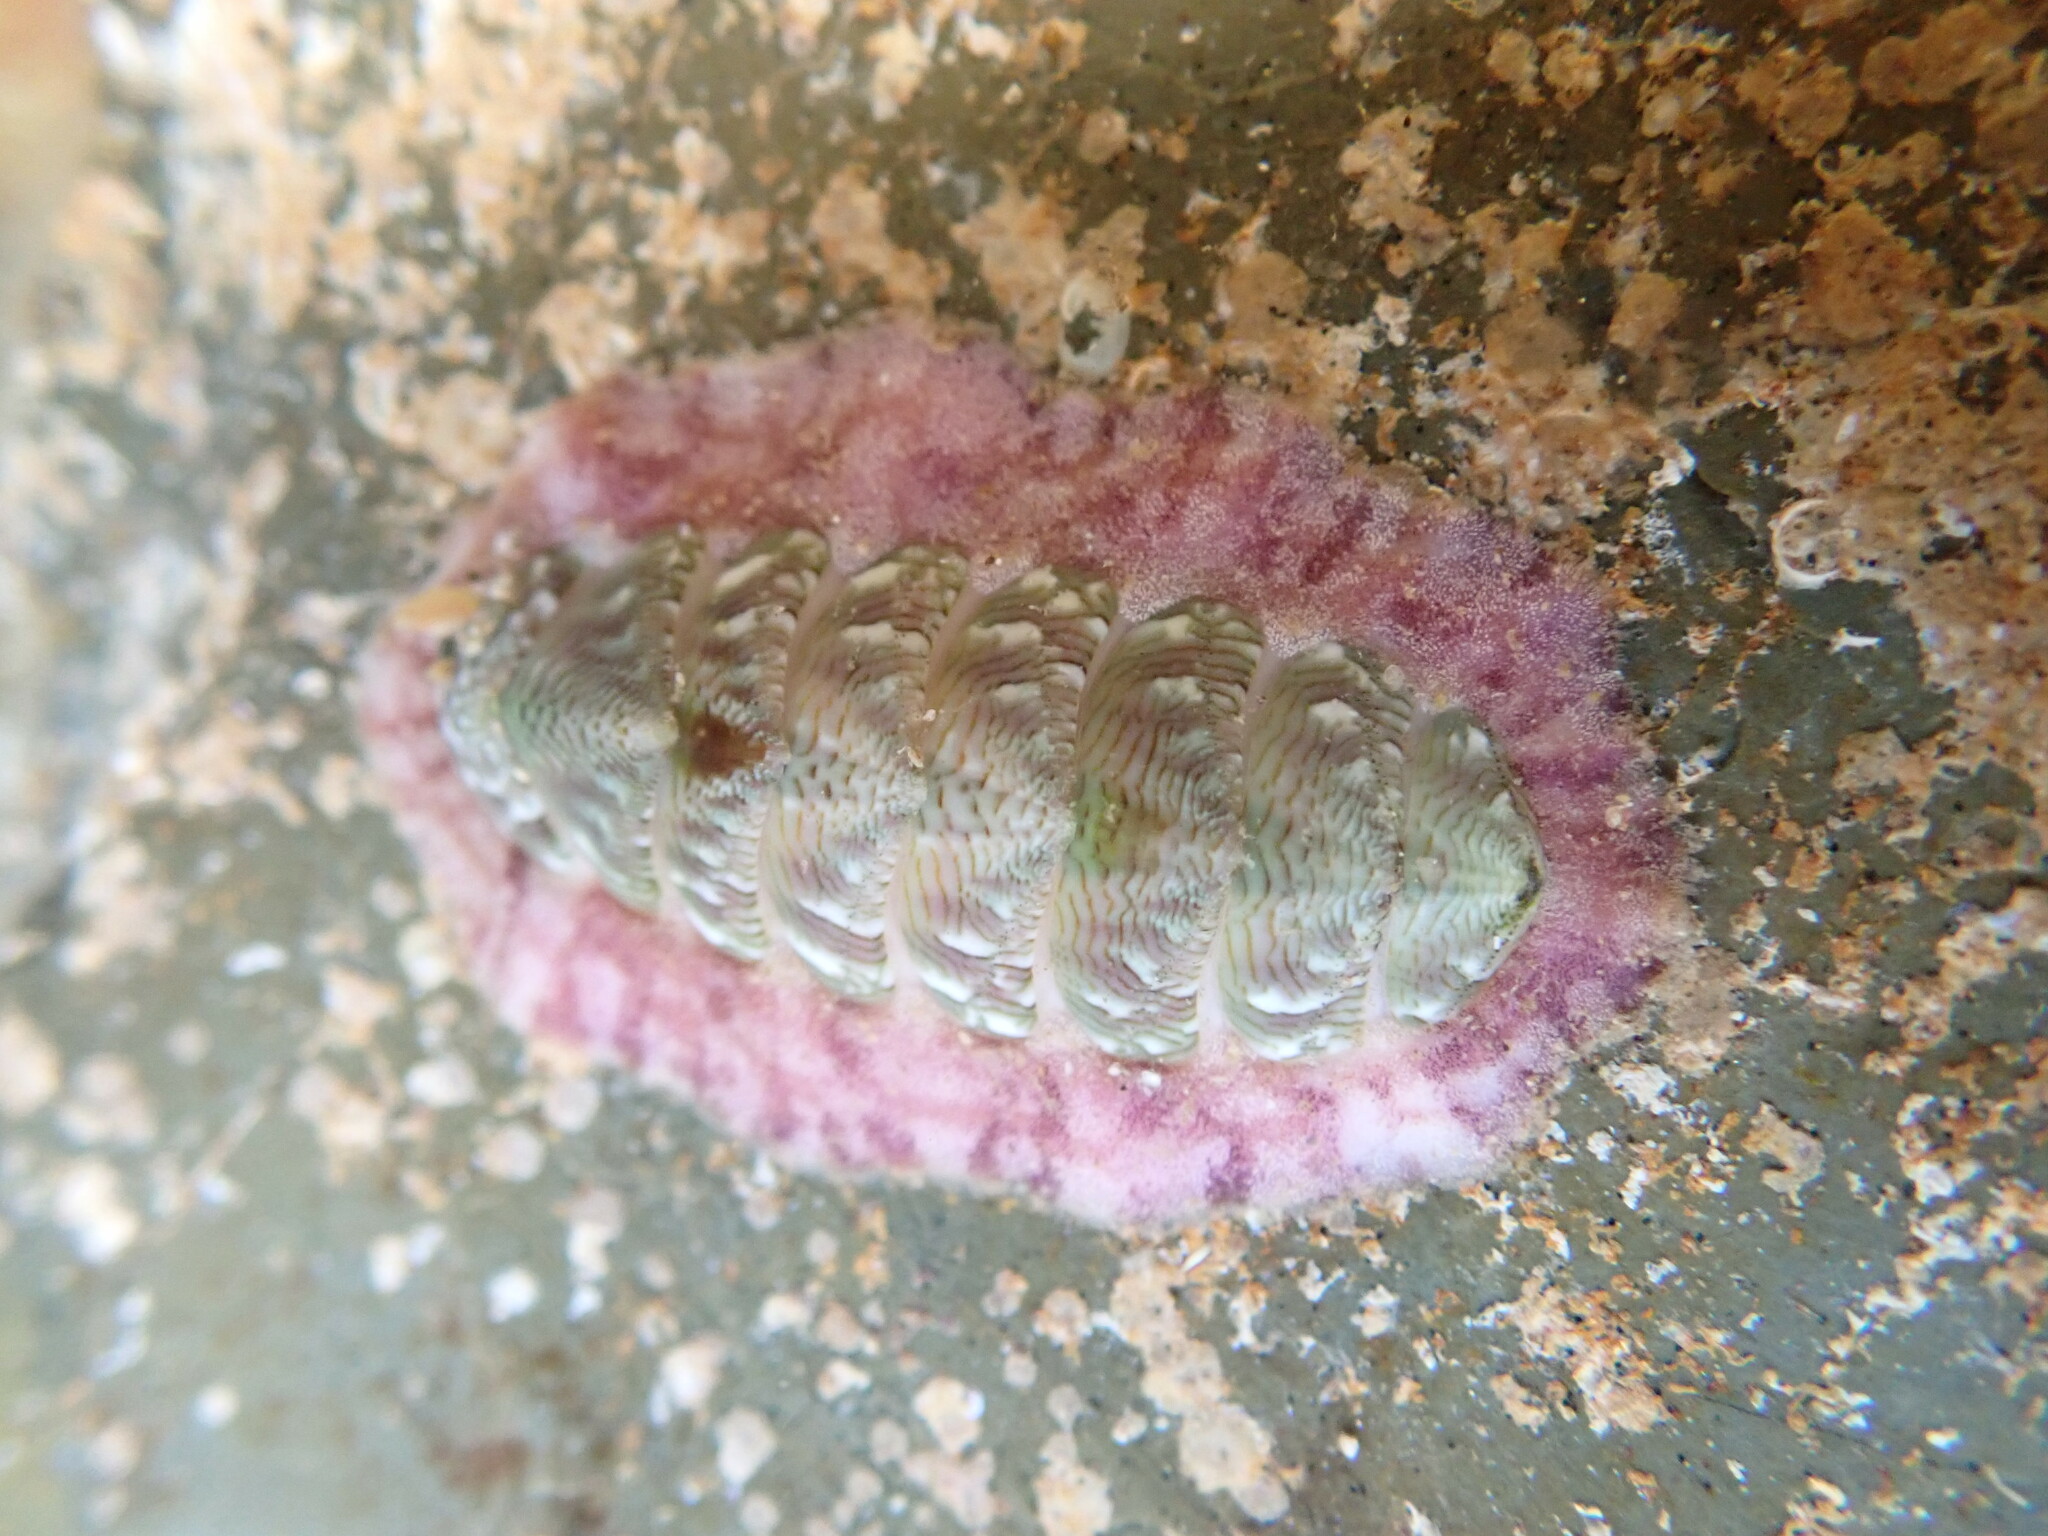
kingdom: Animalia
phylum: Mollusca
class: Polyplacophora
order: Chitonida
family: Chitonidae
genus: Onithochiton
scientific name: Onithochiton neglectus
